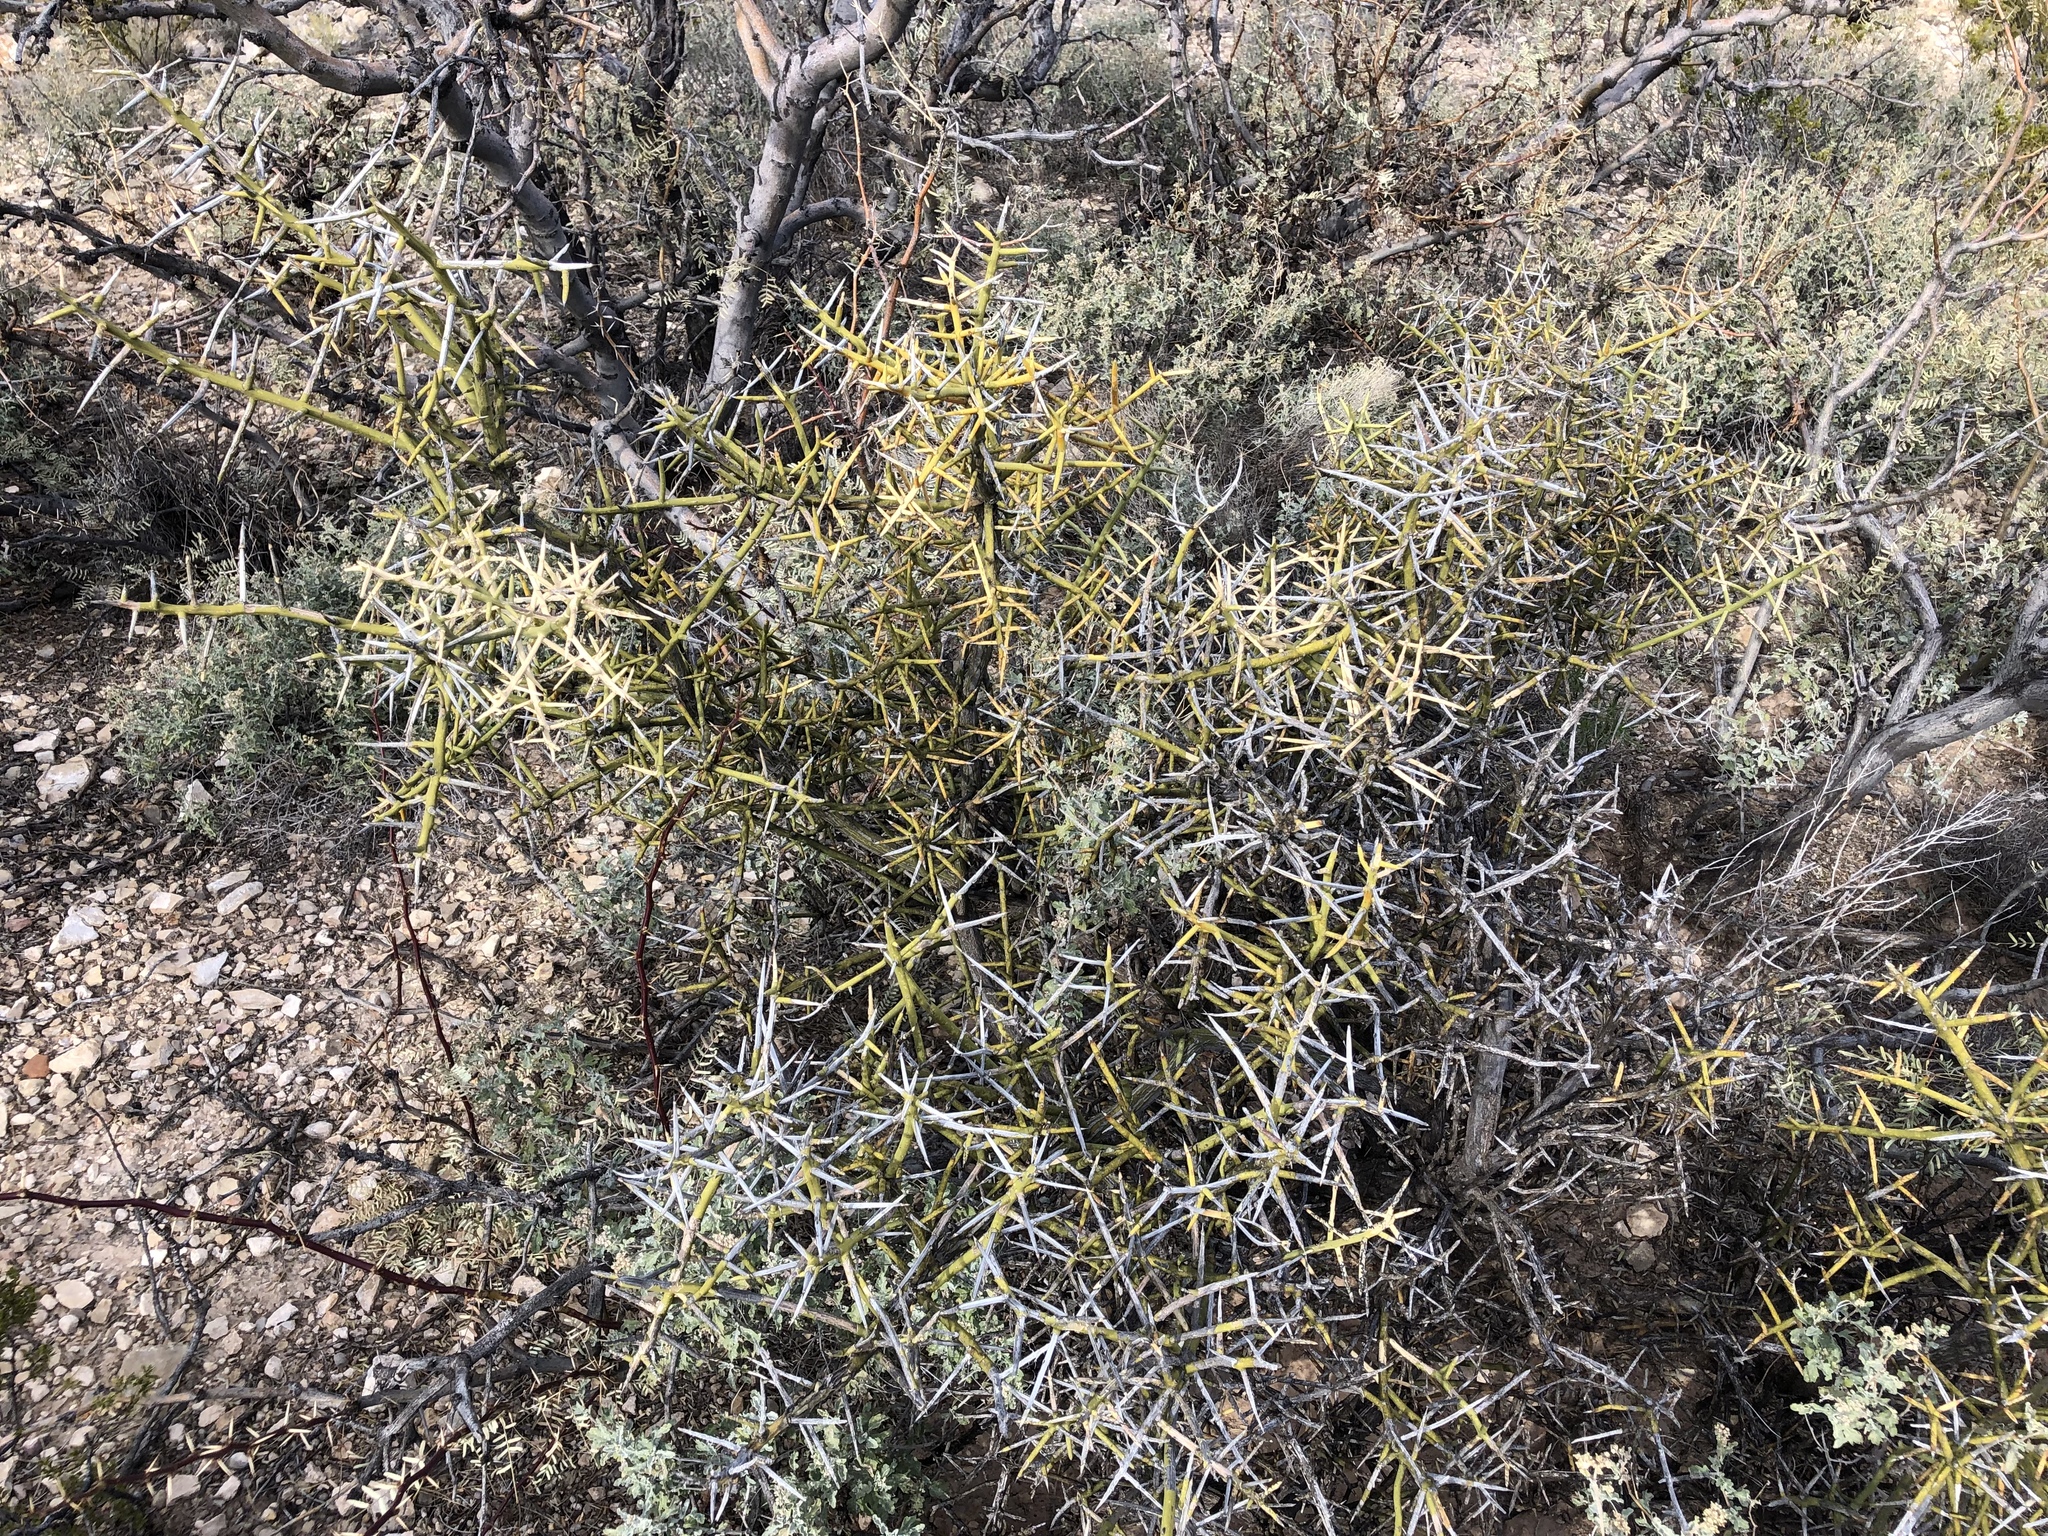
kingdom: Plantae
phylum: Tracheophyta
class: Magnoliopsida
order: Brassicales
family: Koeberliniaceae
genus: Koeberlinia
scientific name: Koeberlinia spinosa
